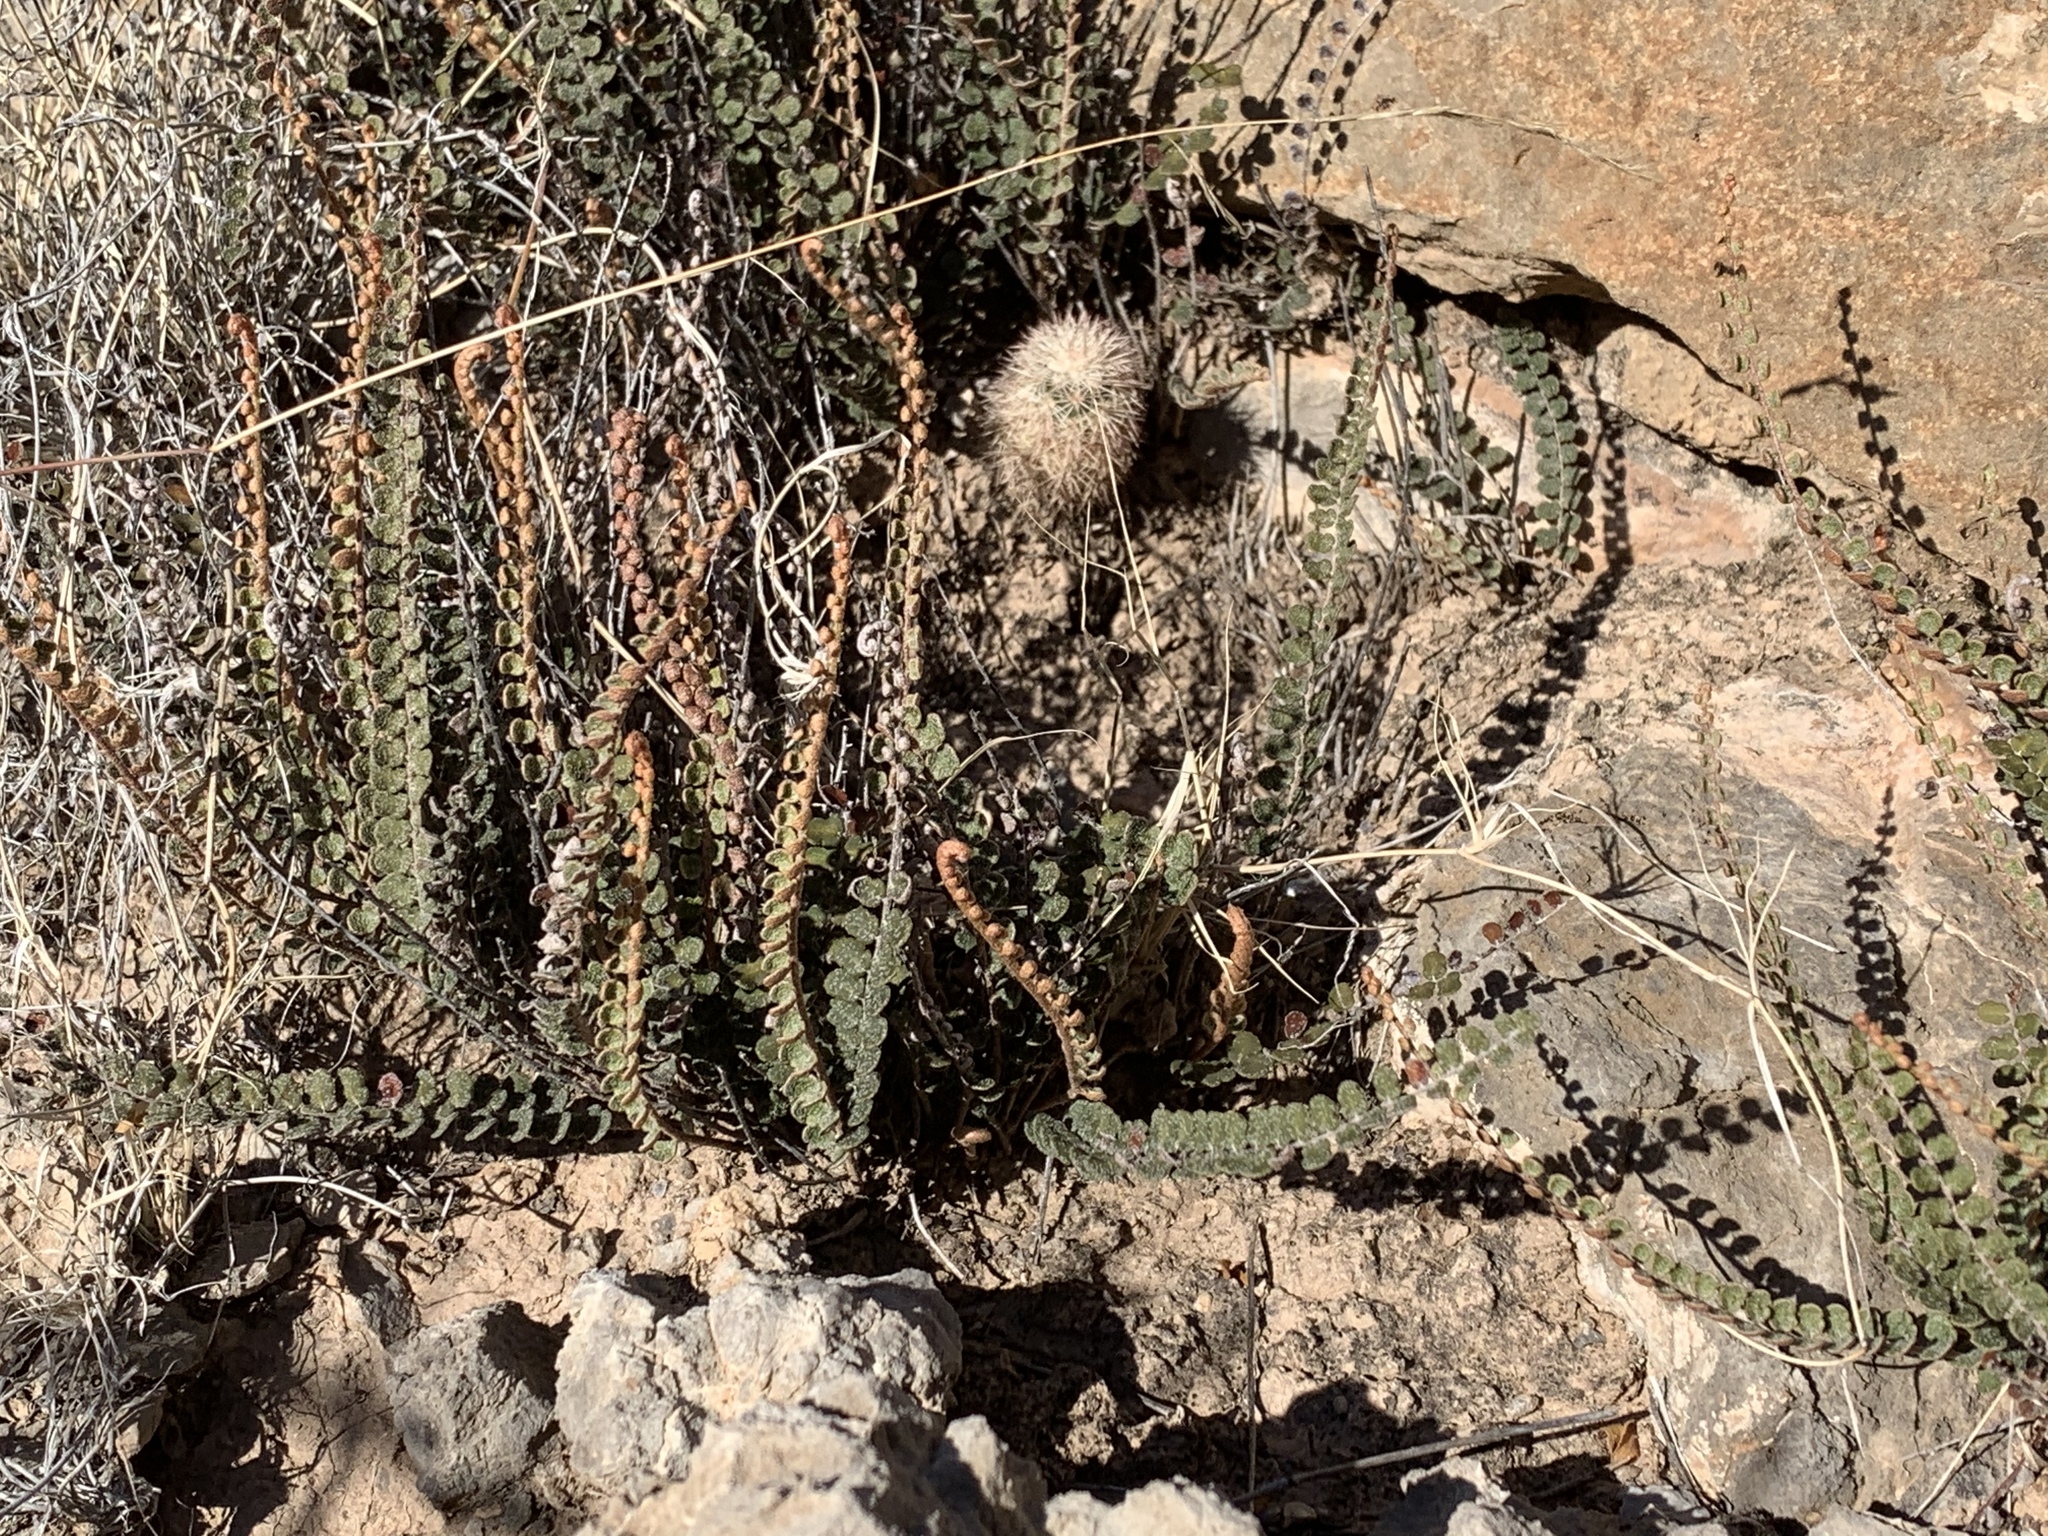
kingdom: Plantae
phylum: Tracheophyta
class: Polypodiopsida
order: Polypodiales
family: Pteridaceae
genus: Astrolepis
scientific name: Astrolepis cochisensis
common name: Scaly cloak fern
